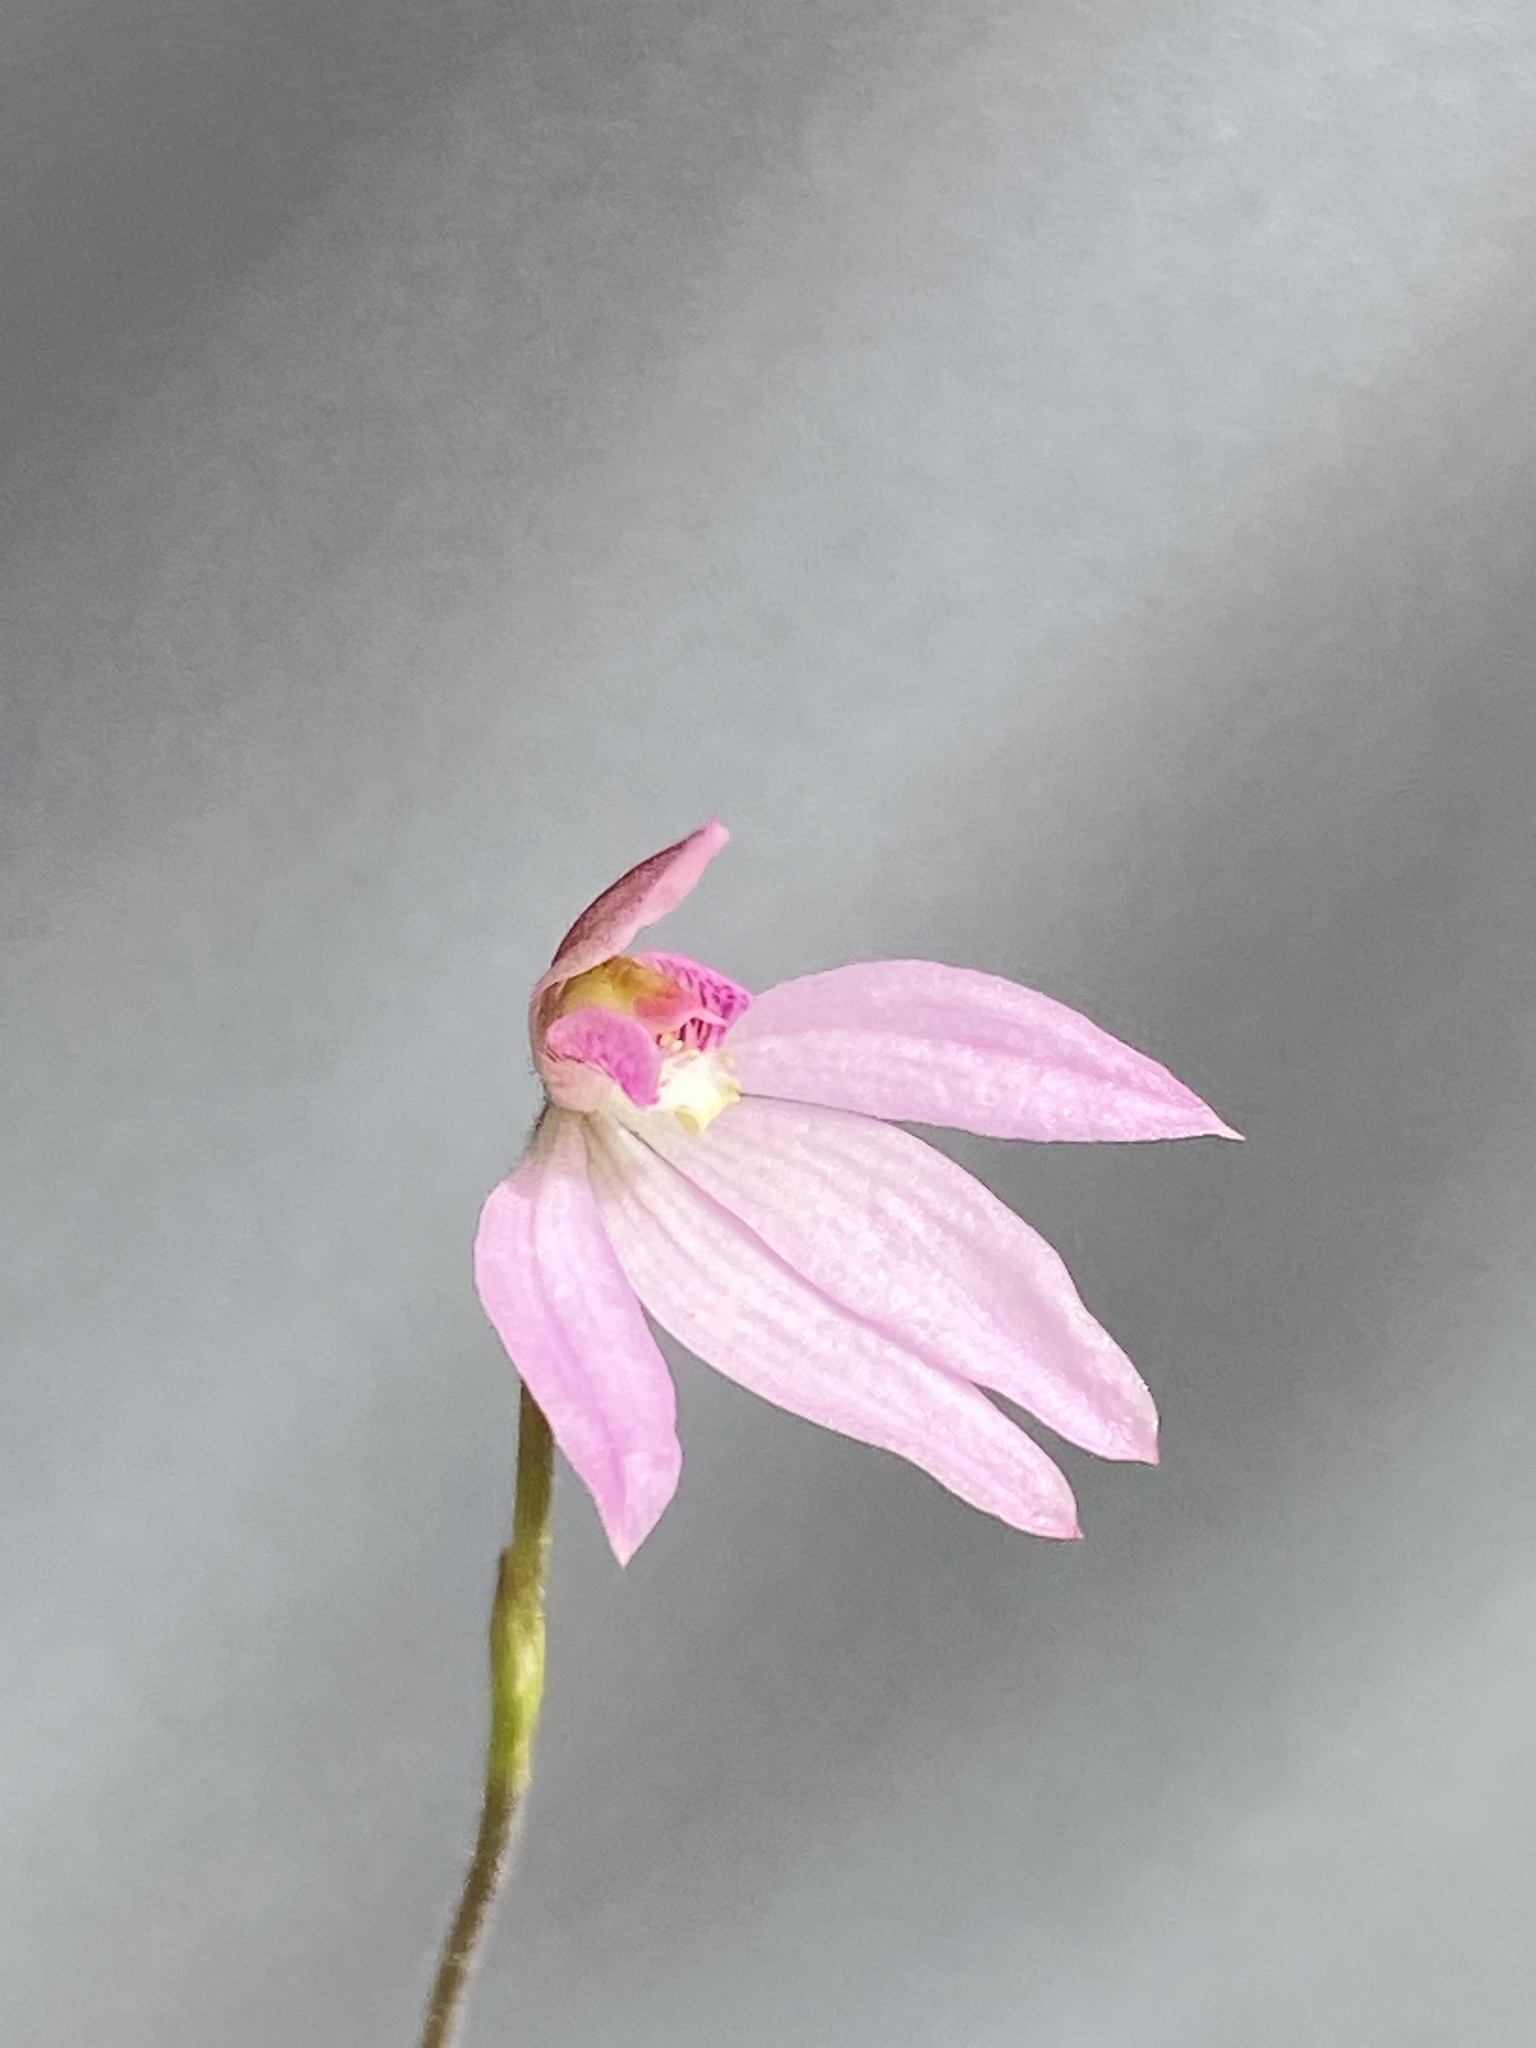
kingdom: Plantae
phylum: Tracheophyta
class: Liliopsida
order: Asparagales
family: Orchidaceae
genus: Caladenia
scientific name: Caladenia carnea
